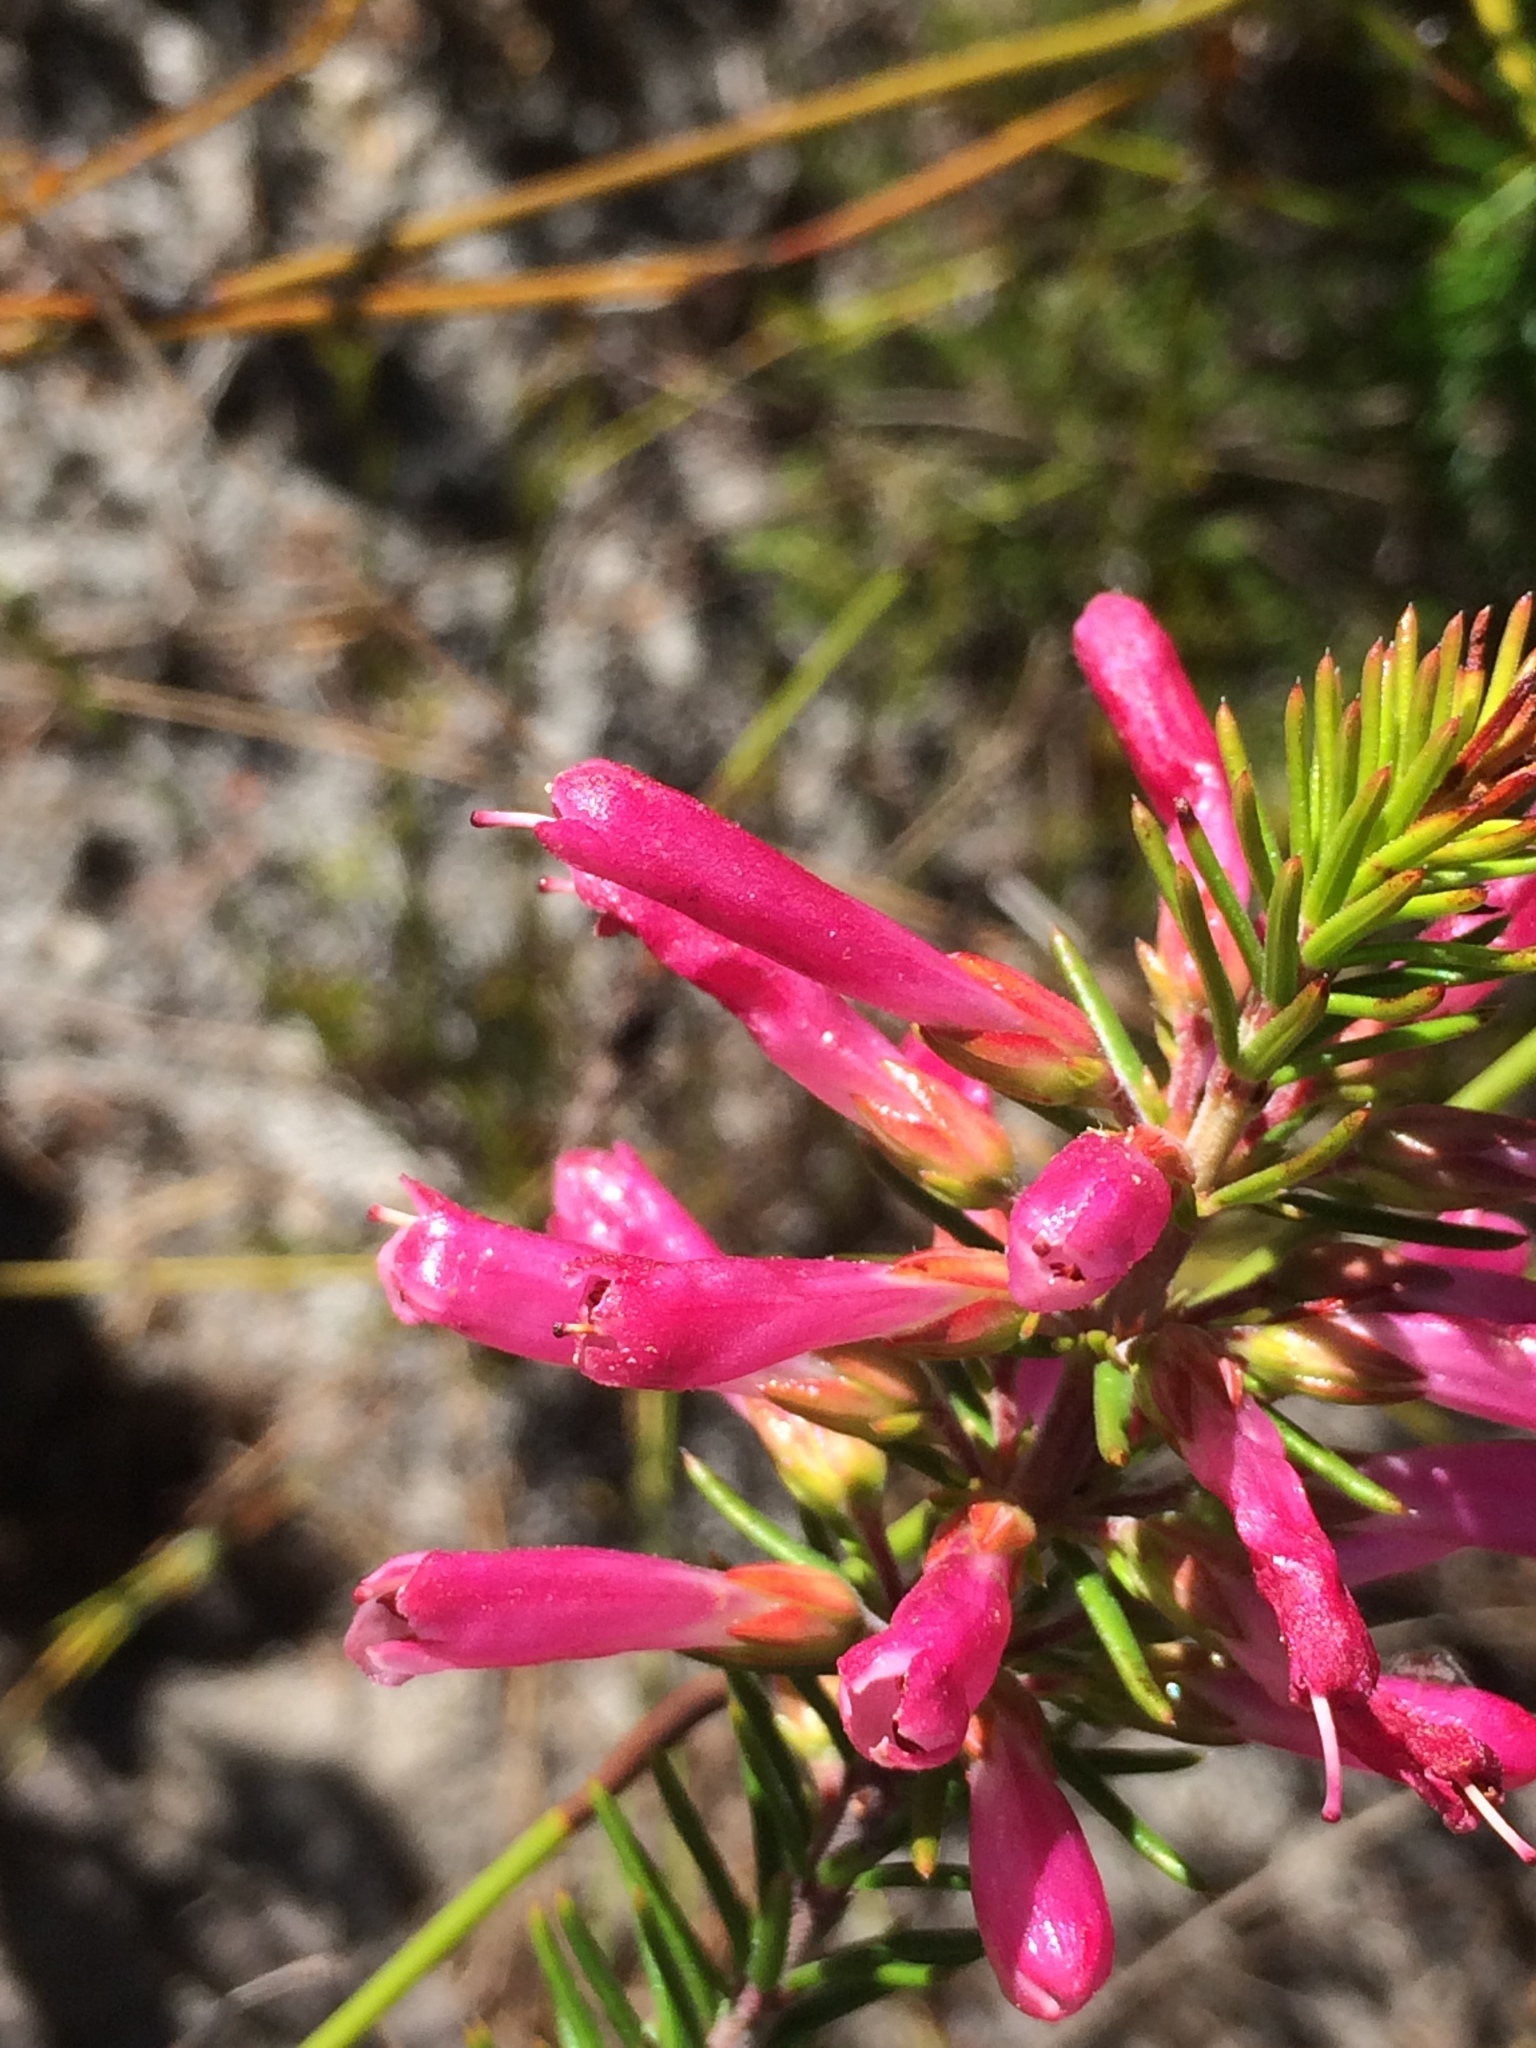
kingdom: Plantae
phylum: Tracheophyta
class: Magnoliopsida
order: Ericales
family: Ericaceae
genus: Erica
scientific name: Erica abietina
